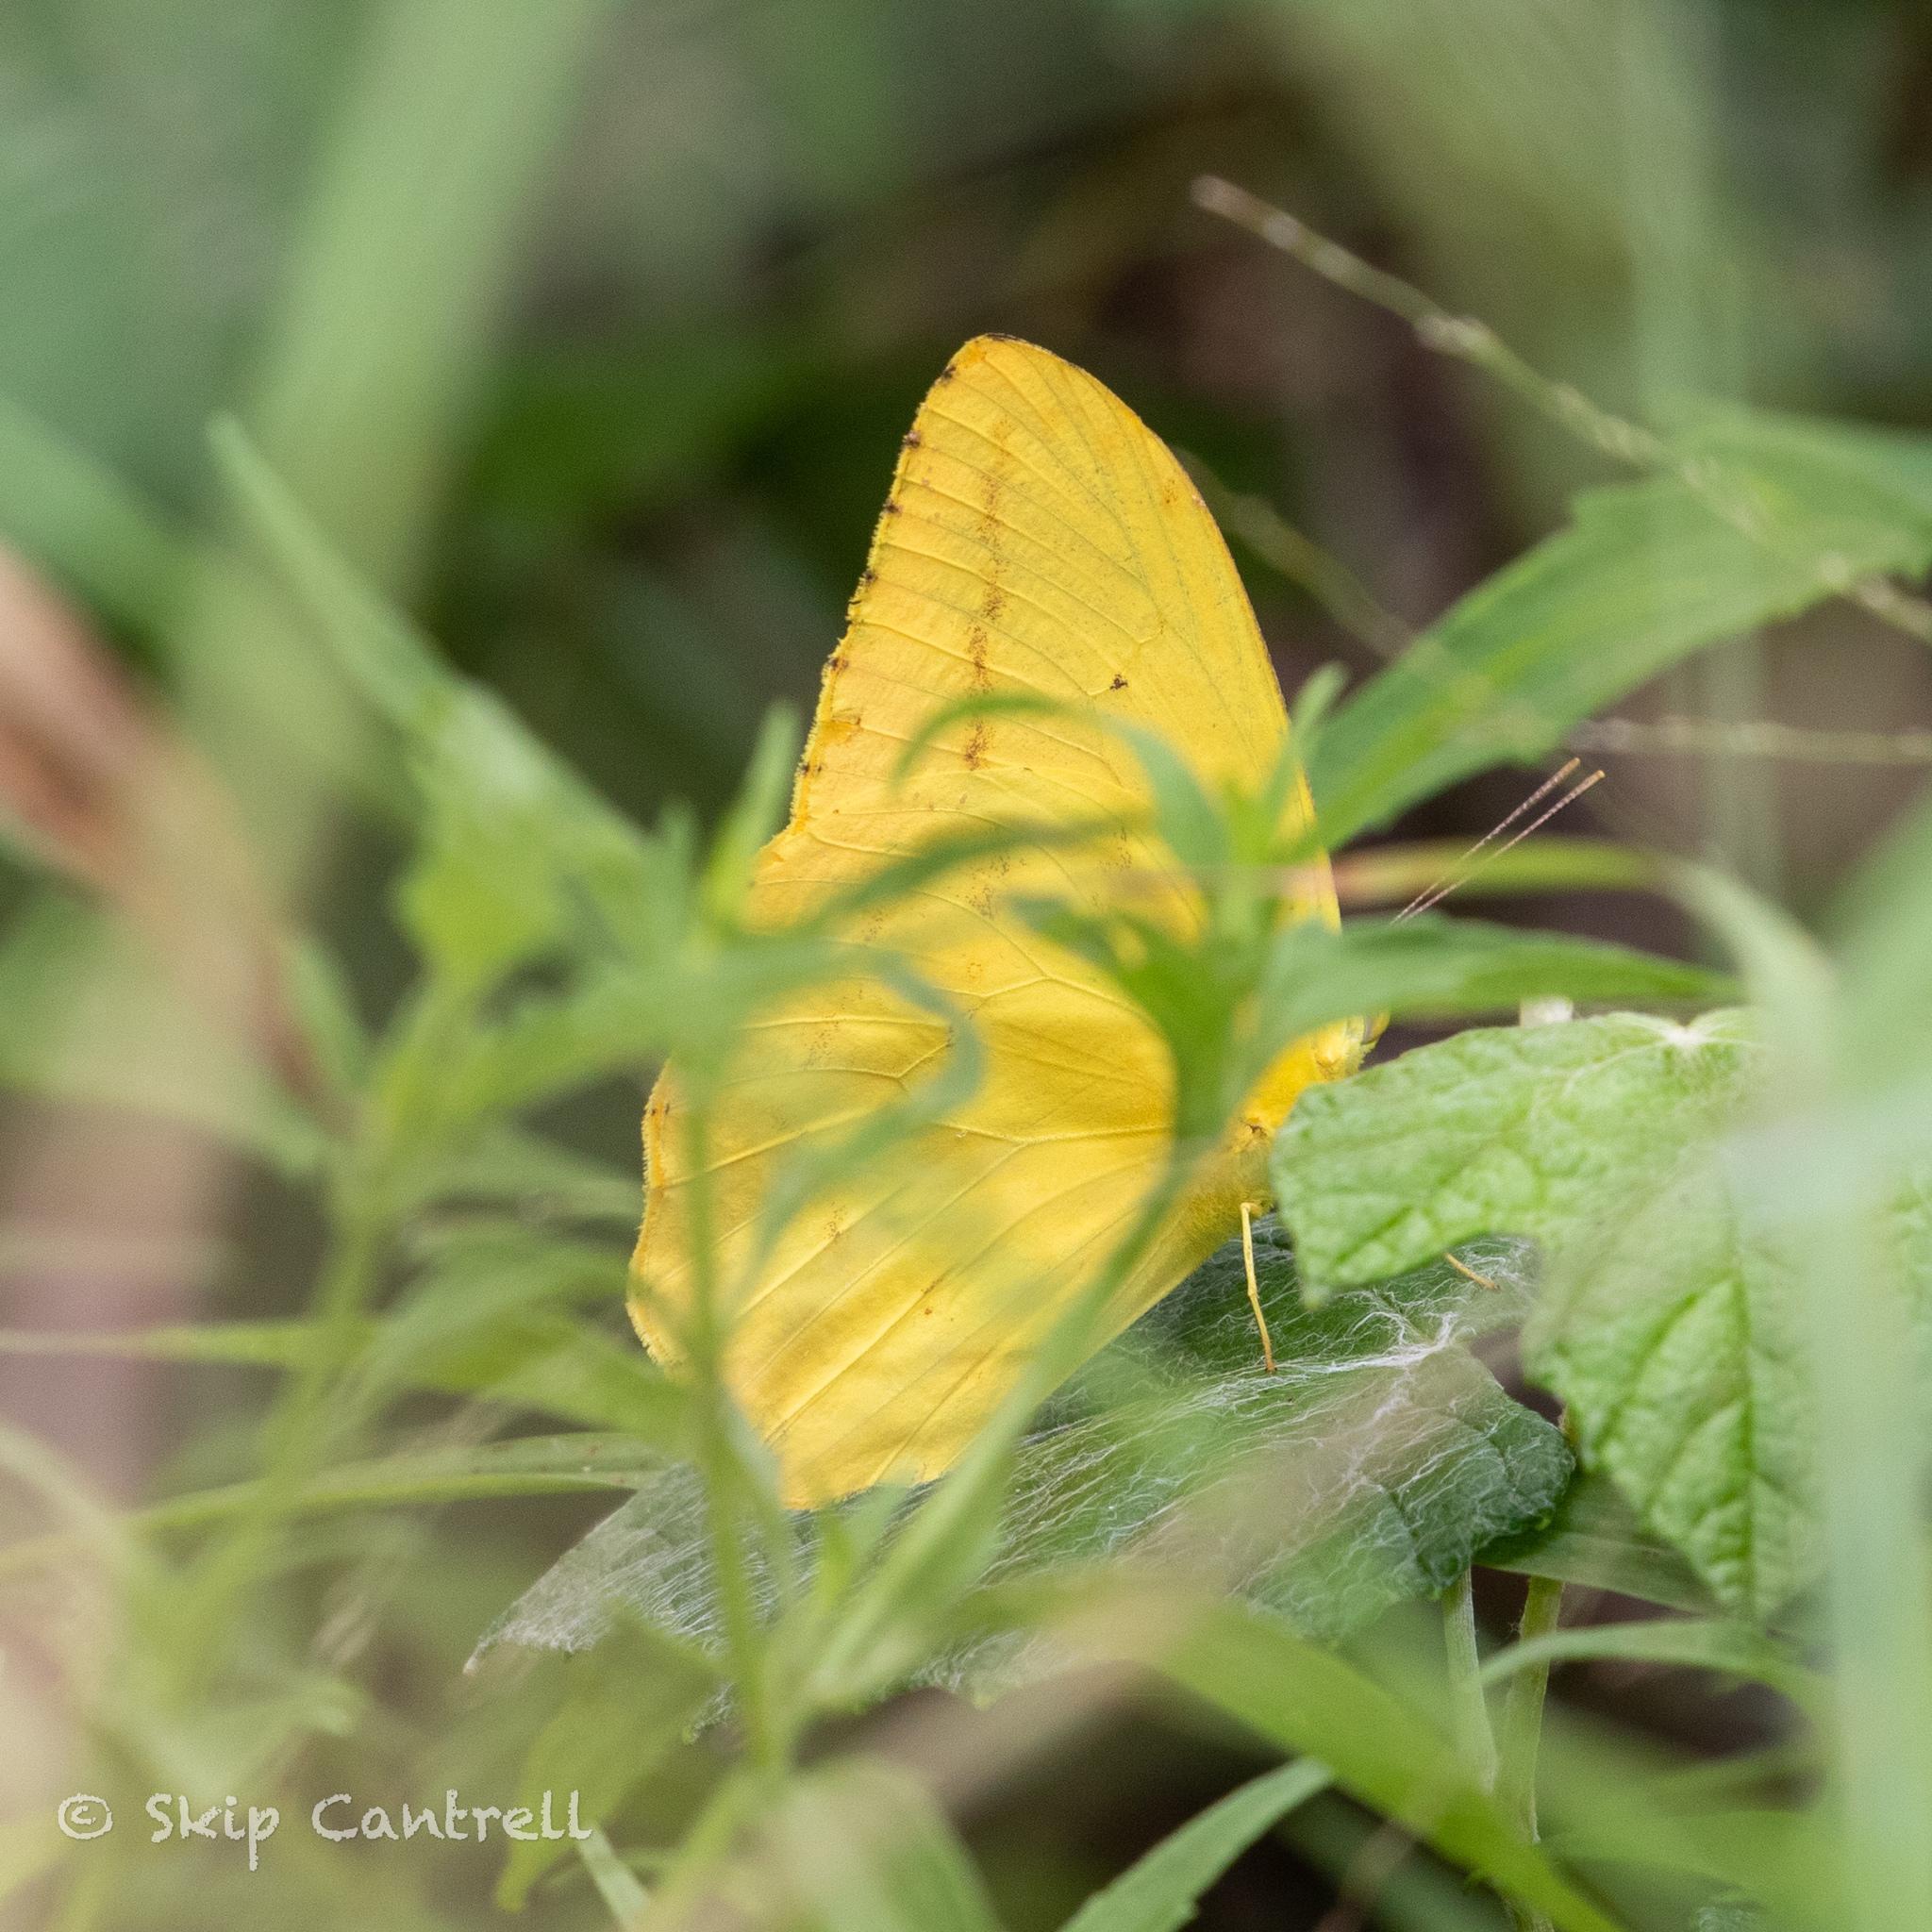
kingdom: Animalia
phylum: Arthropoda
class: Insecta
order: Lepidoptera
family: Pieridae
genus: Phoebis
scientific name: Phoebis agarithe
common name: Large orange sulphur
